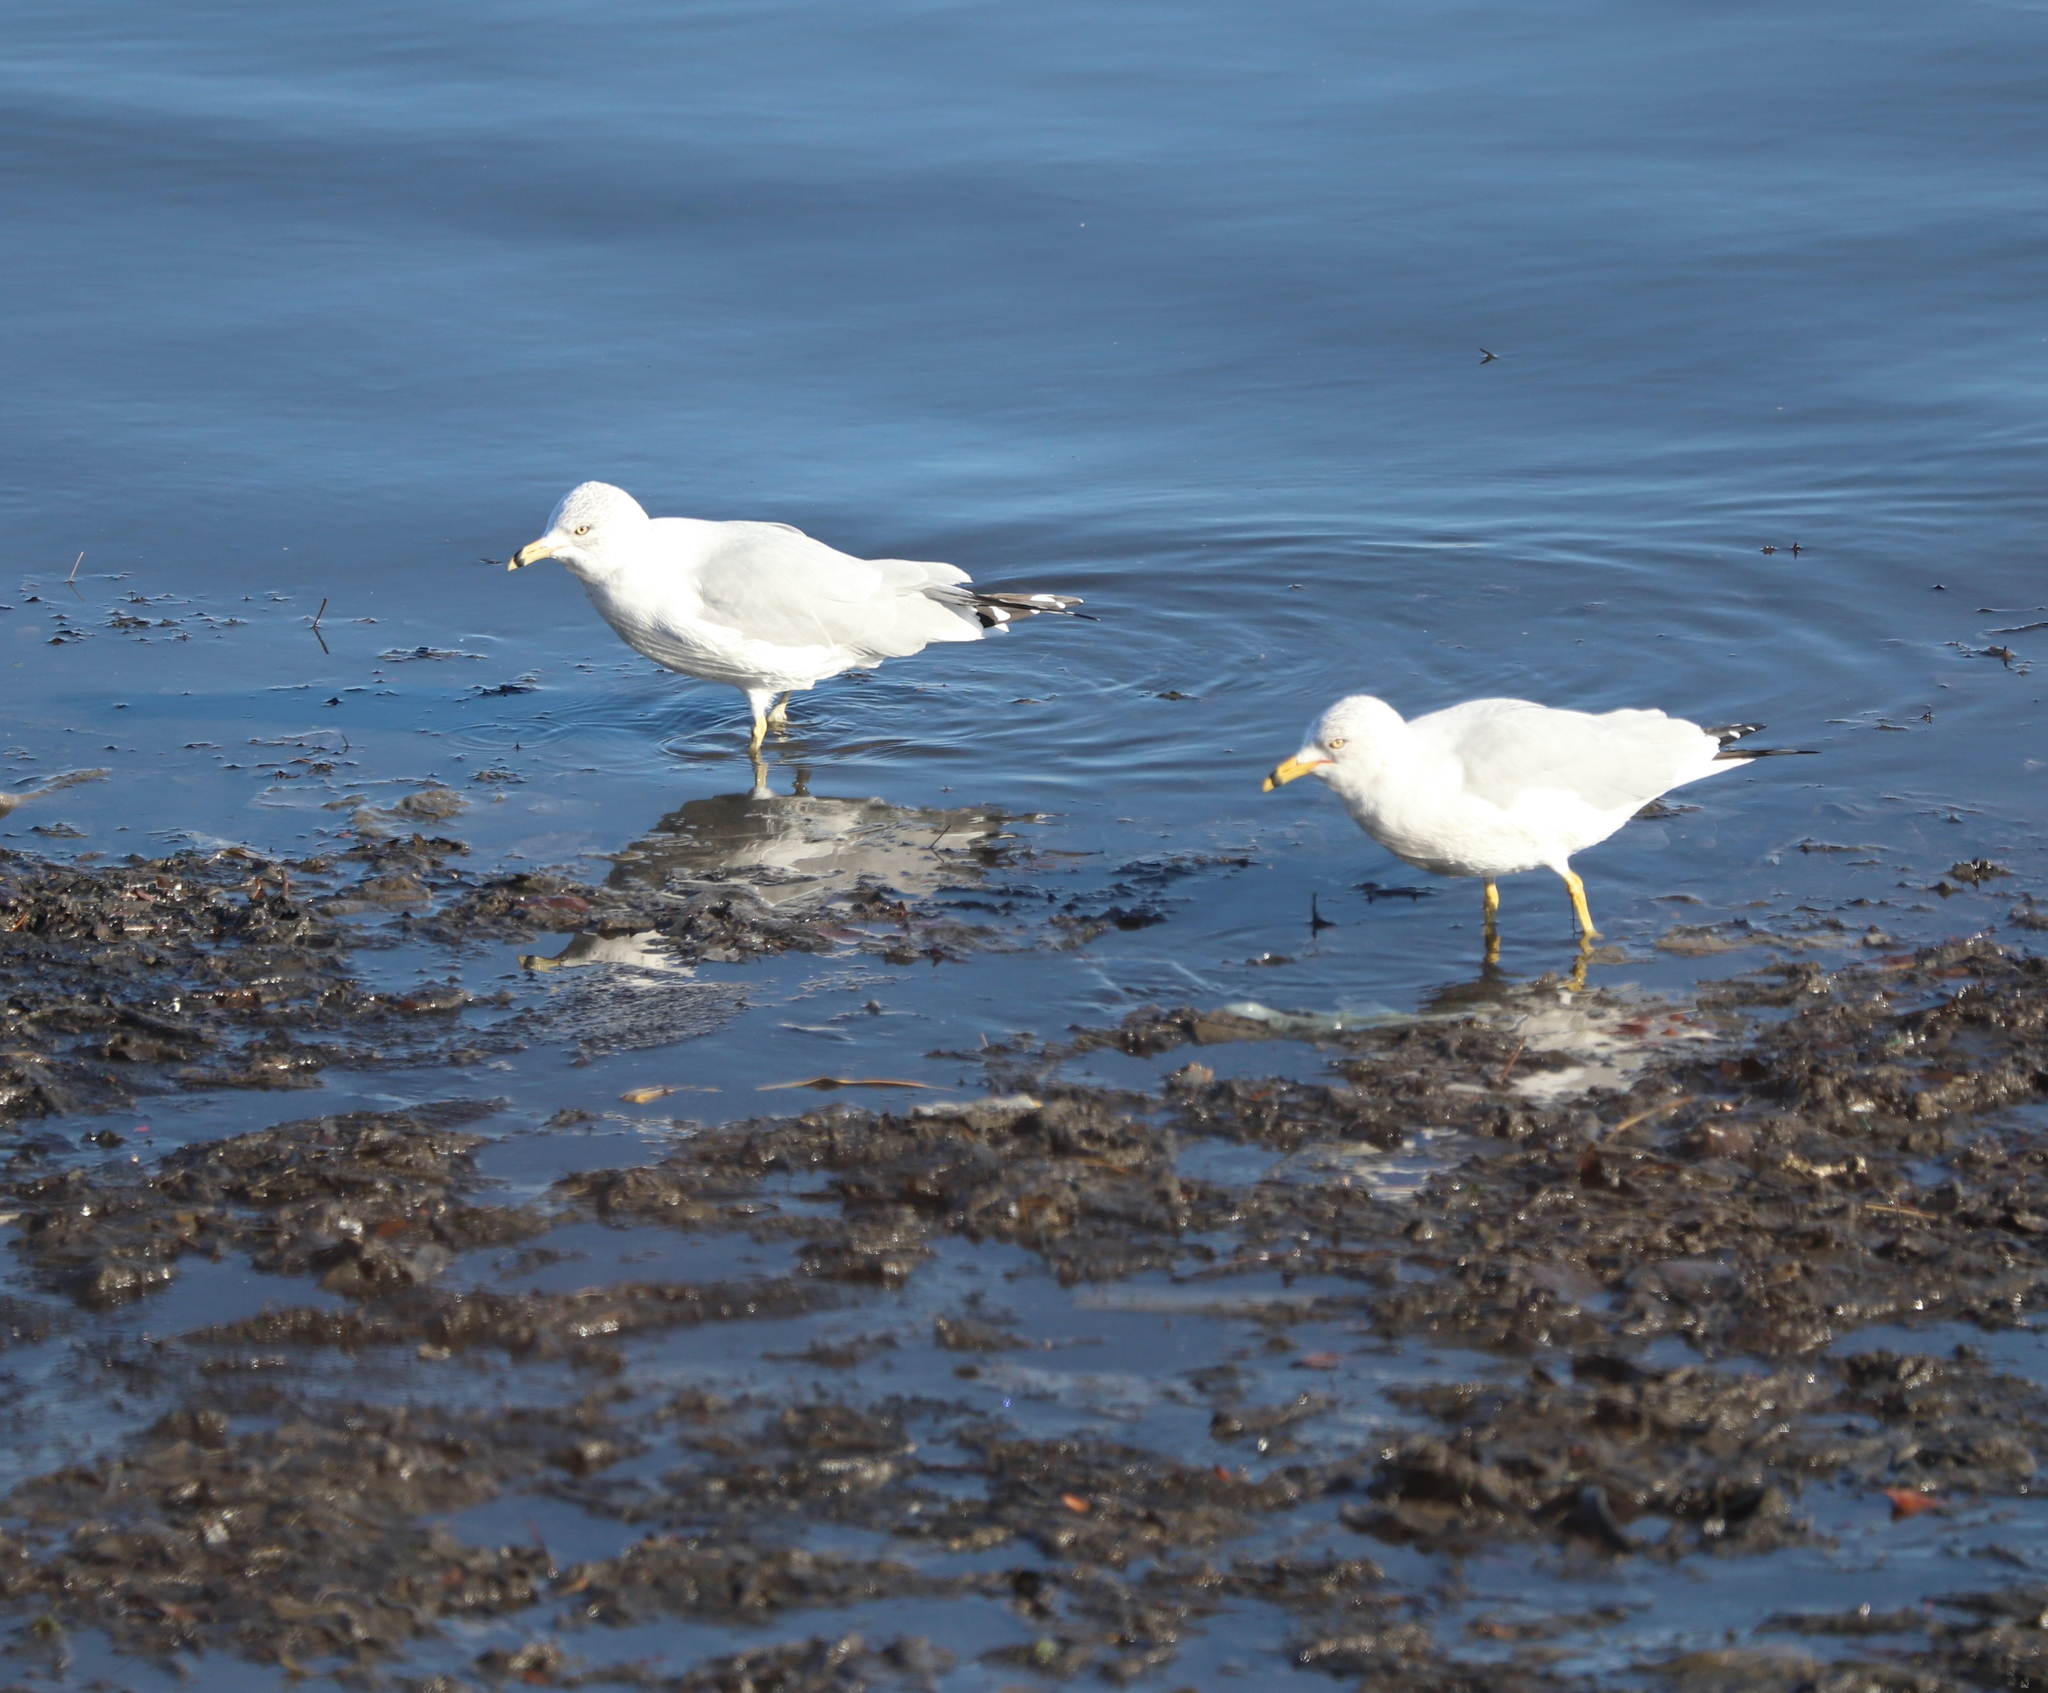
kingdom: Animalia
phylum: Chordata
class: Aves
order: Charadriiformes
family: Laridae
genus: Larus
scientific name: Larus delawarensis
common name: Ring-billed gull
